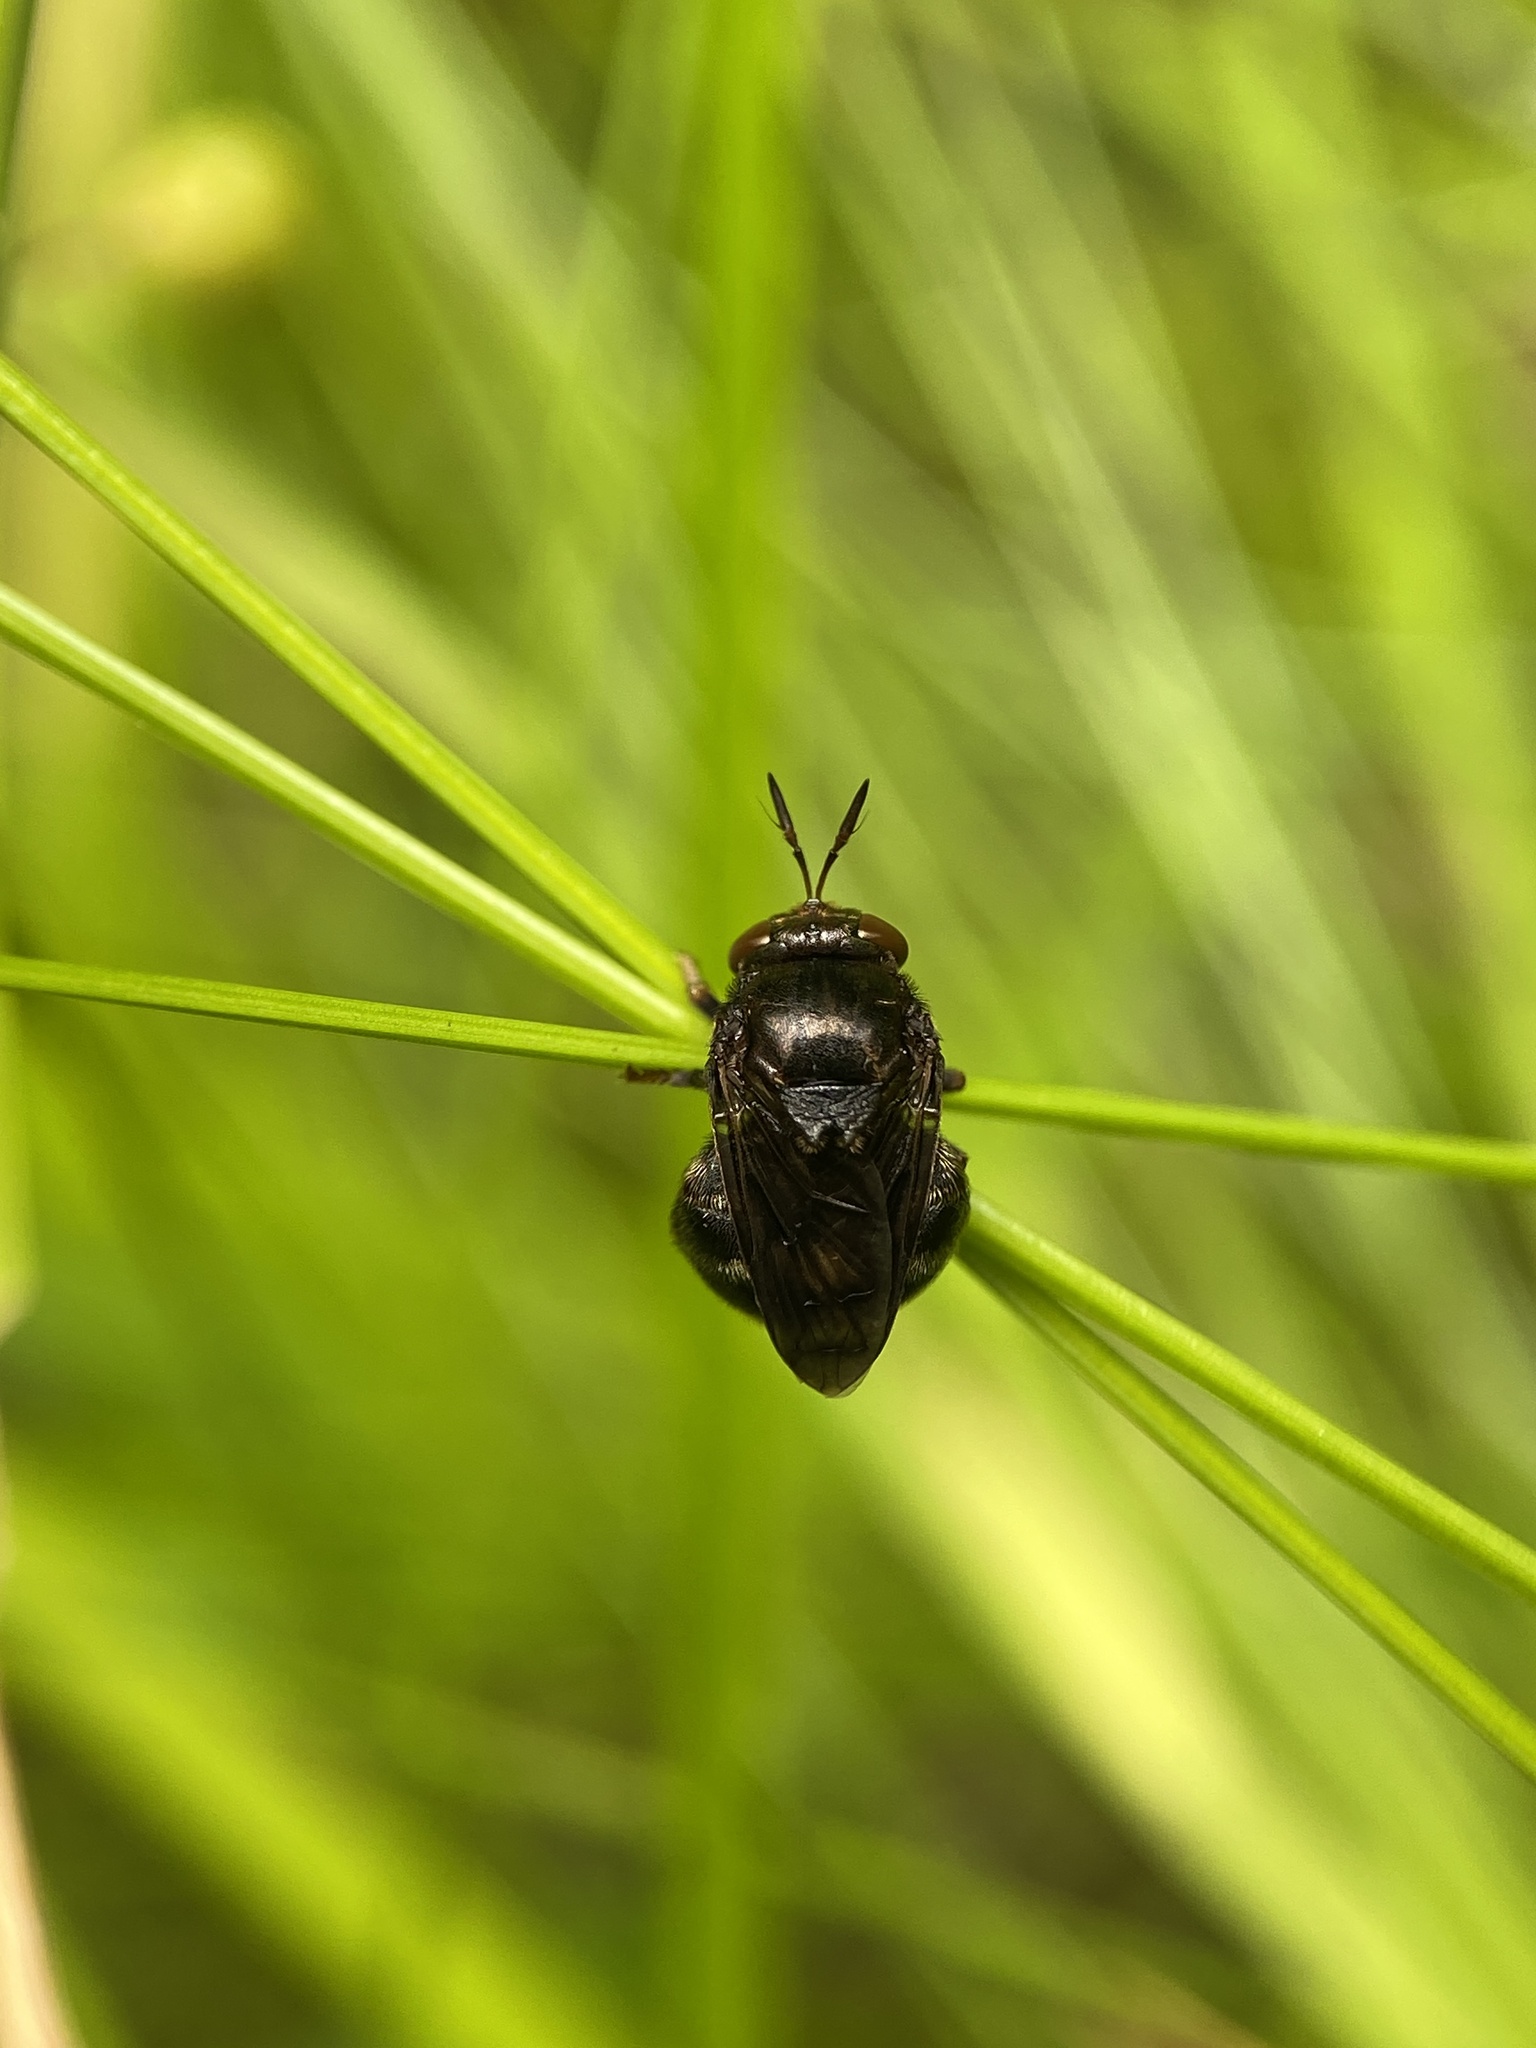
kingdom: Animalia
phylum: Arthropoda
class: Insecta
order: Diptera
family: Syrphidae
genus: Microdon
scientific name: Microdon globosus
